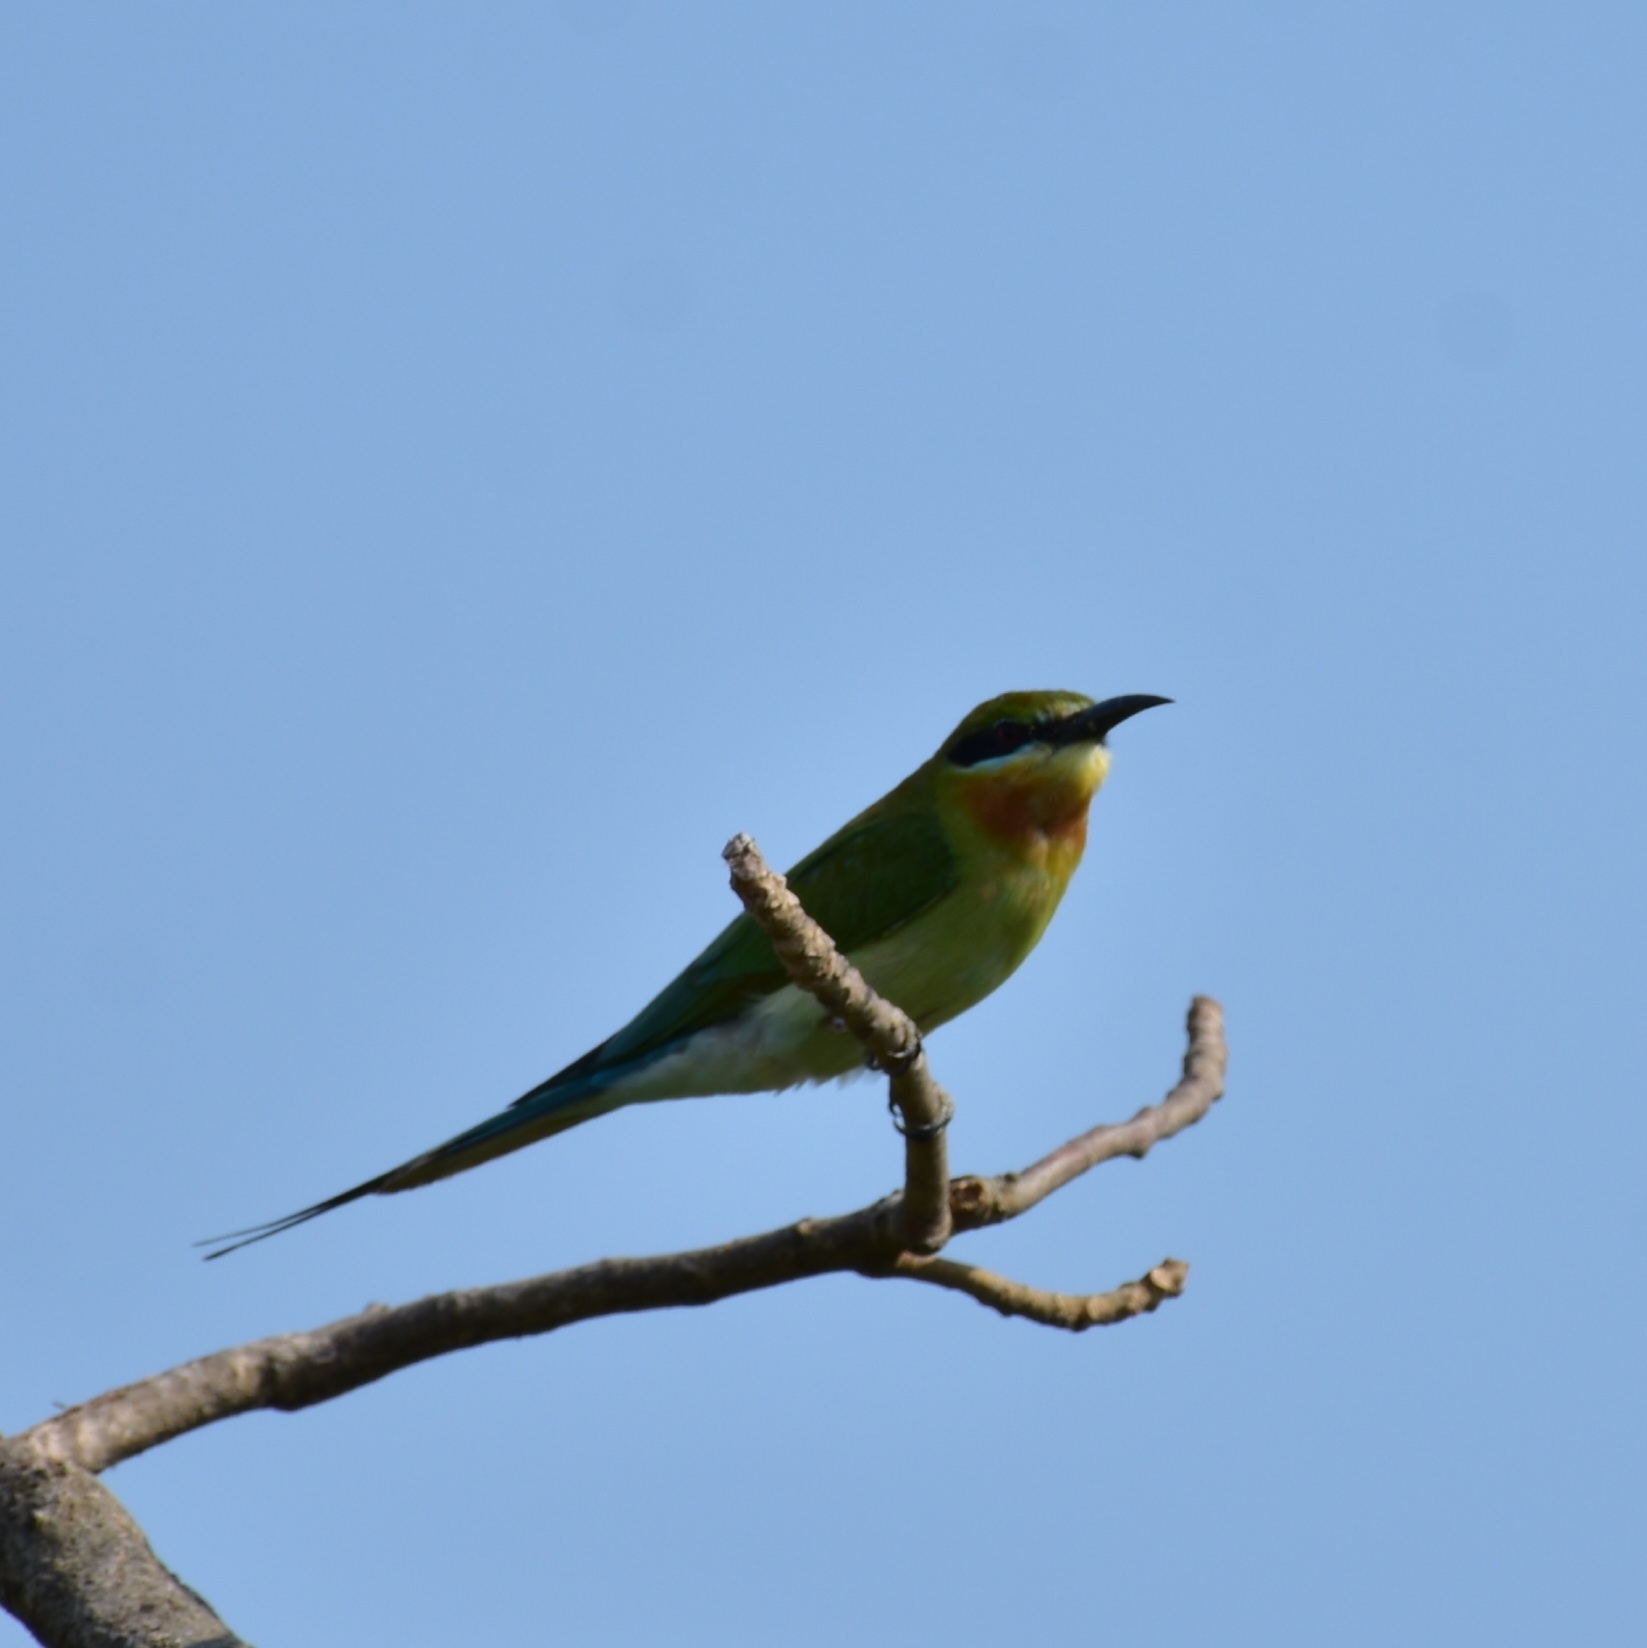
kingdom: Animalia
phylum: Chordata
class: Aves
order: Coraciiformes
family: Meropidae
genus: Merops
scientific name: Merops philippinus
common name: Blue-tailed bee-eater
